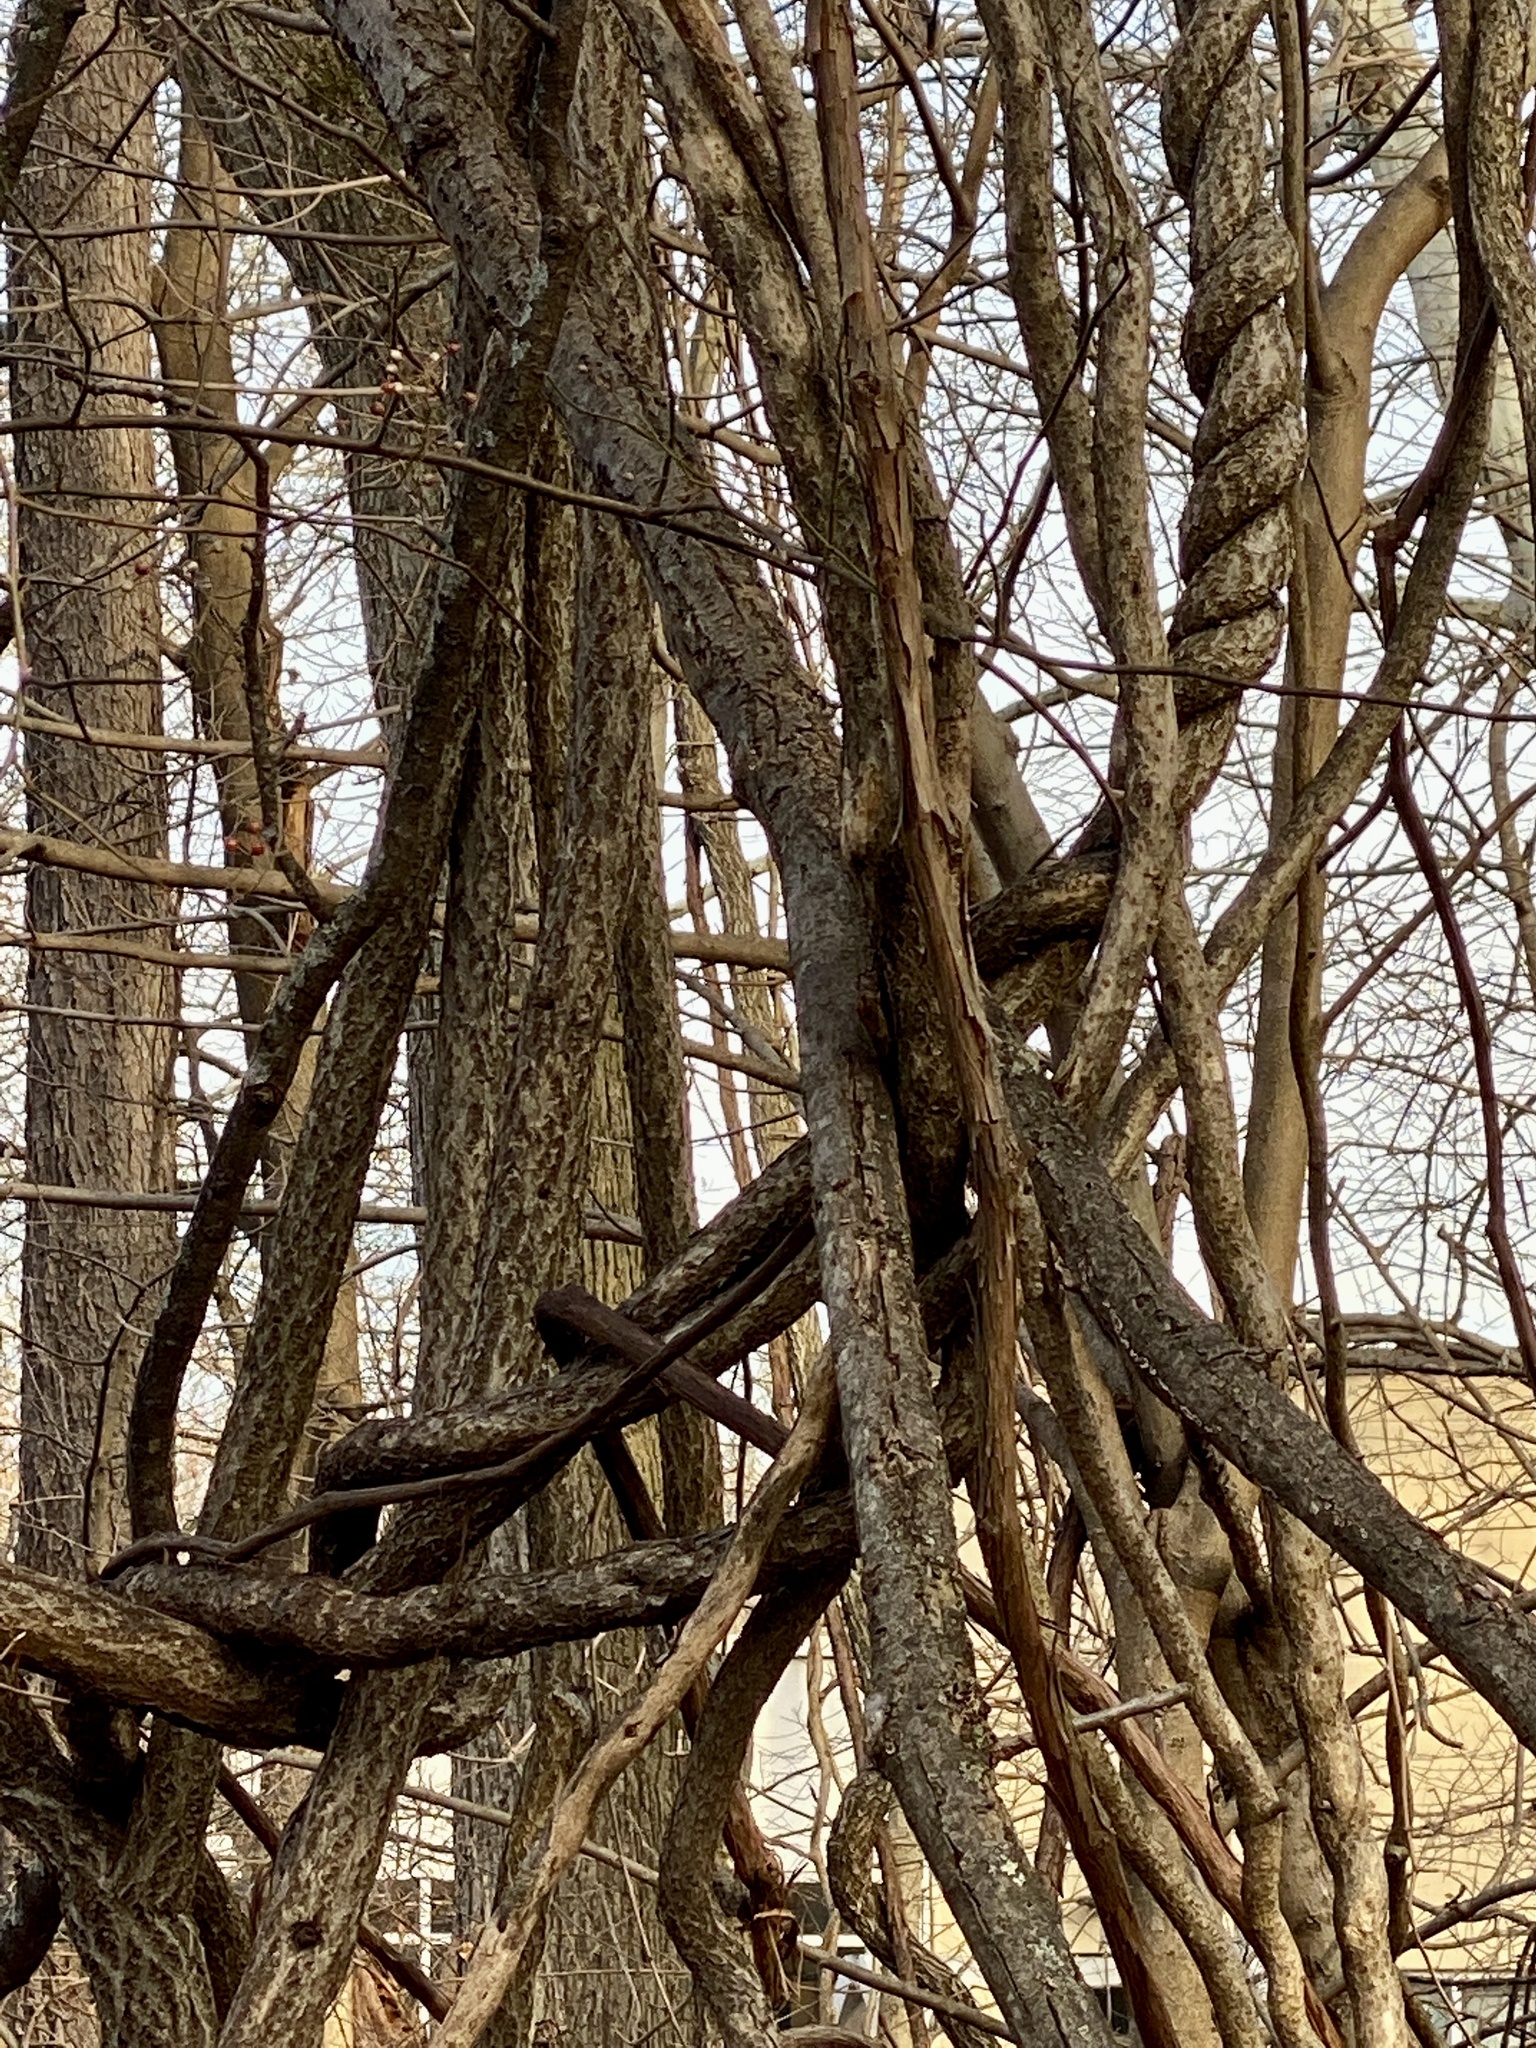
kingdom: Plantae
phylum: Tracheophyta
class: Magnoliopsida
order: Celastrales
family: Celastraceae
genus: Celastrus
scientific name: Celastrus orbiculatus
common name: Oriental bittersweet
